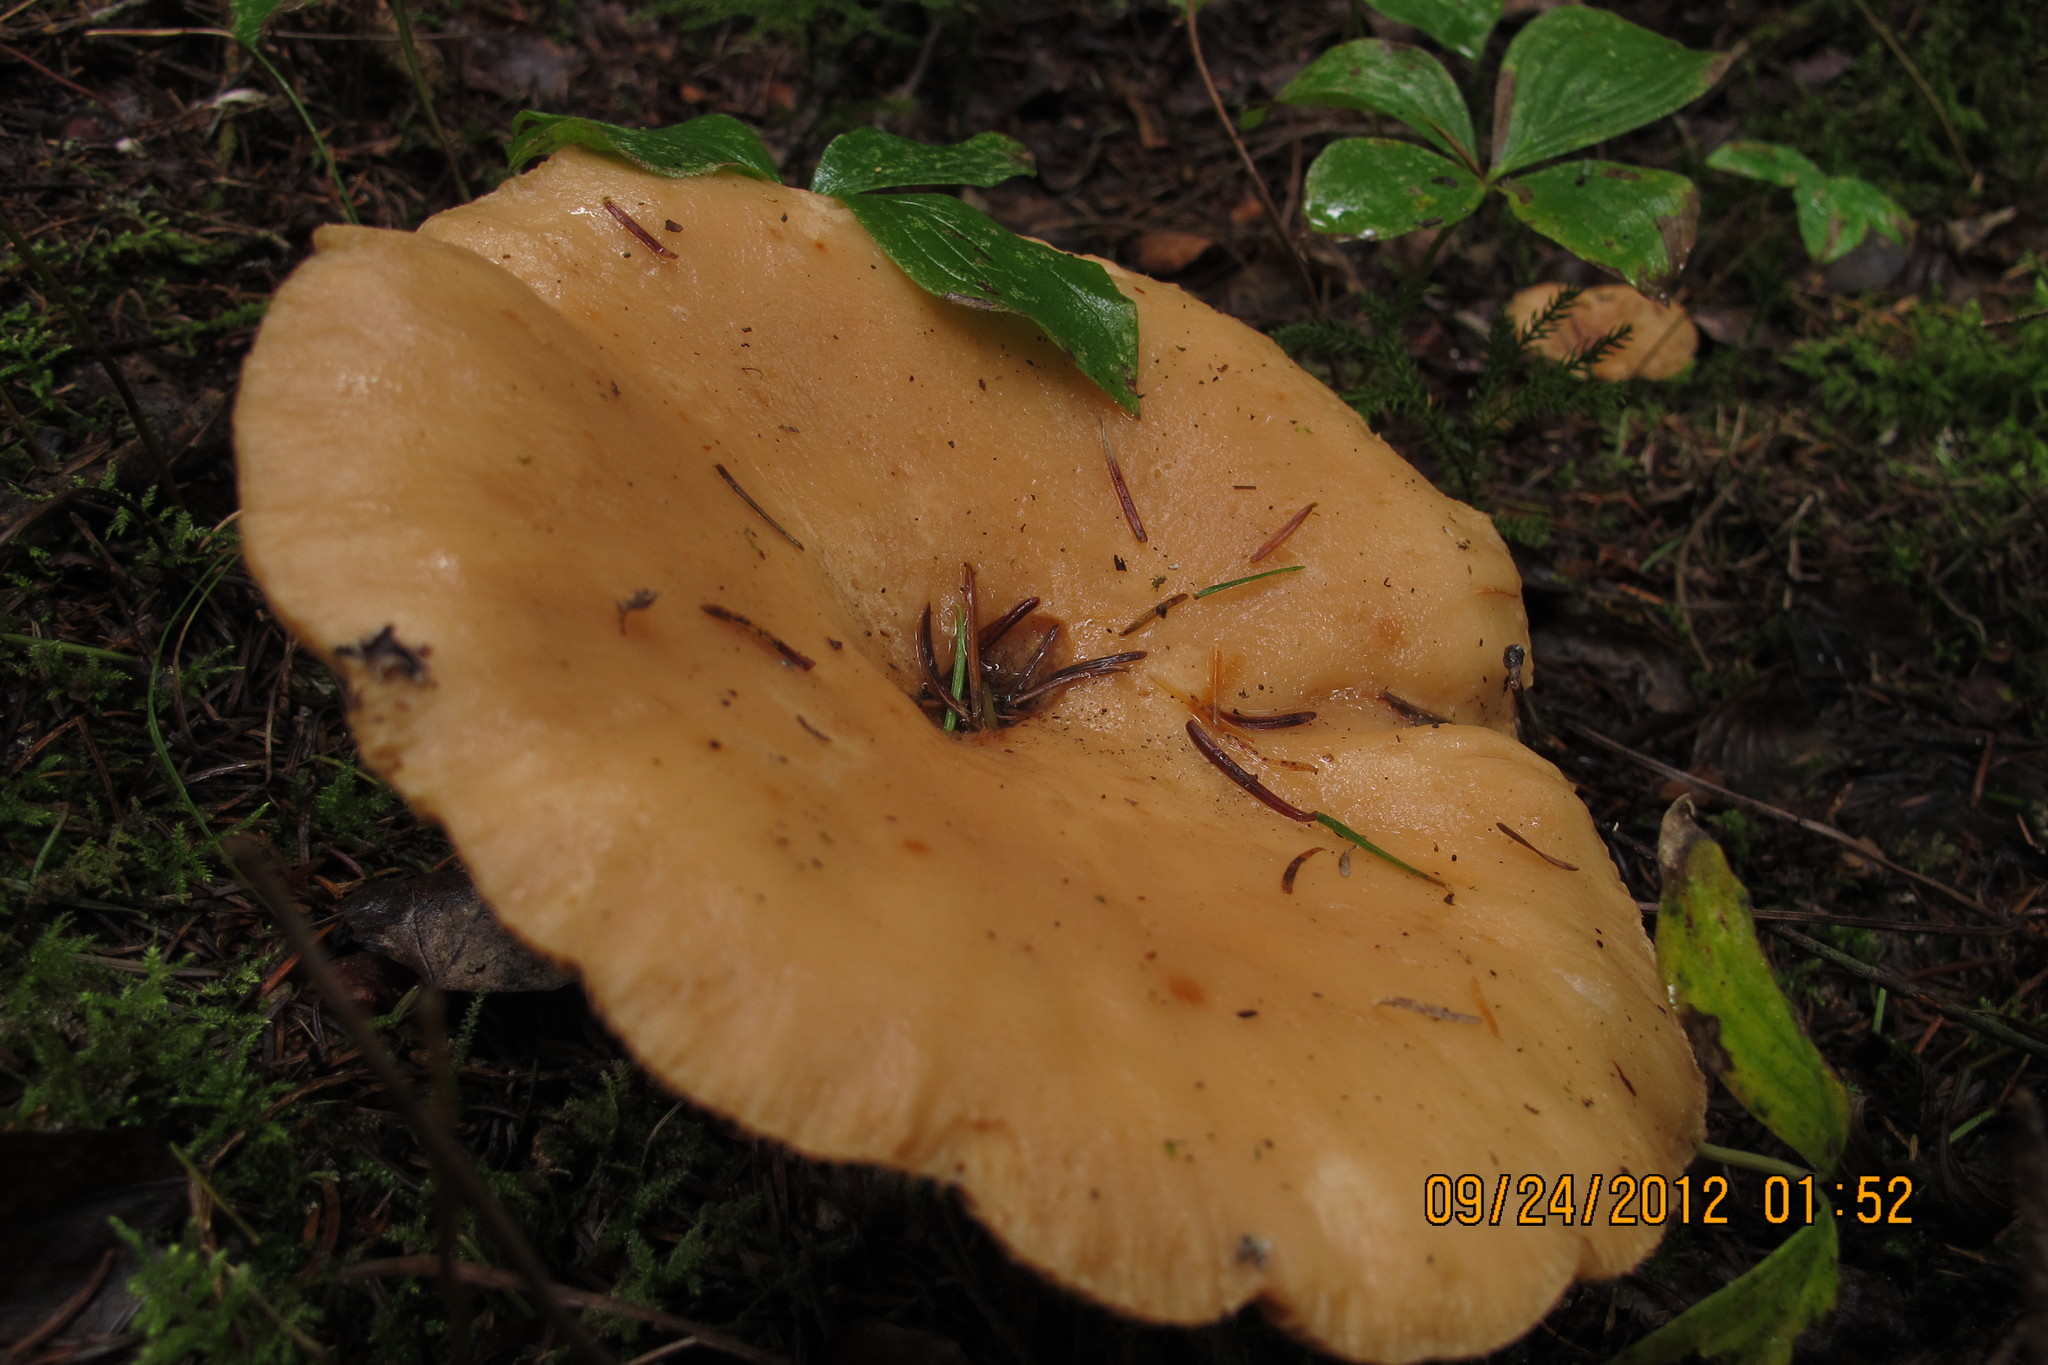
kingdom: Fungi
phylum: Basidiomycota
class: Agaricomycetes
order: Russulales
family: Russulaceae
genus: Lactarius
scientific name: Lactarius affinis
